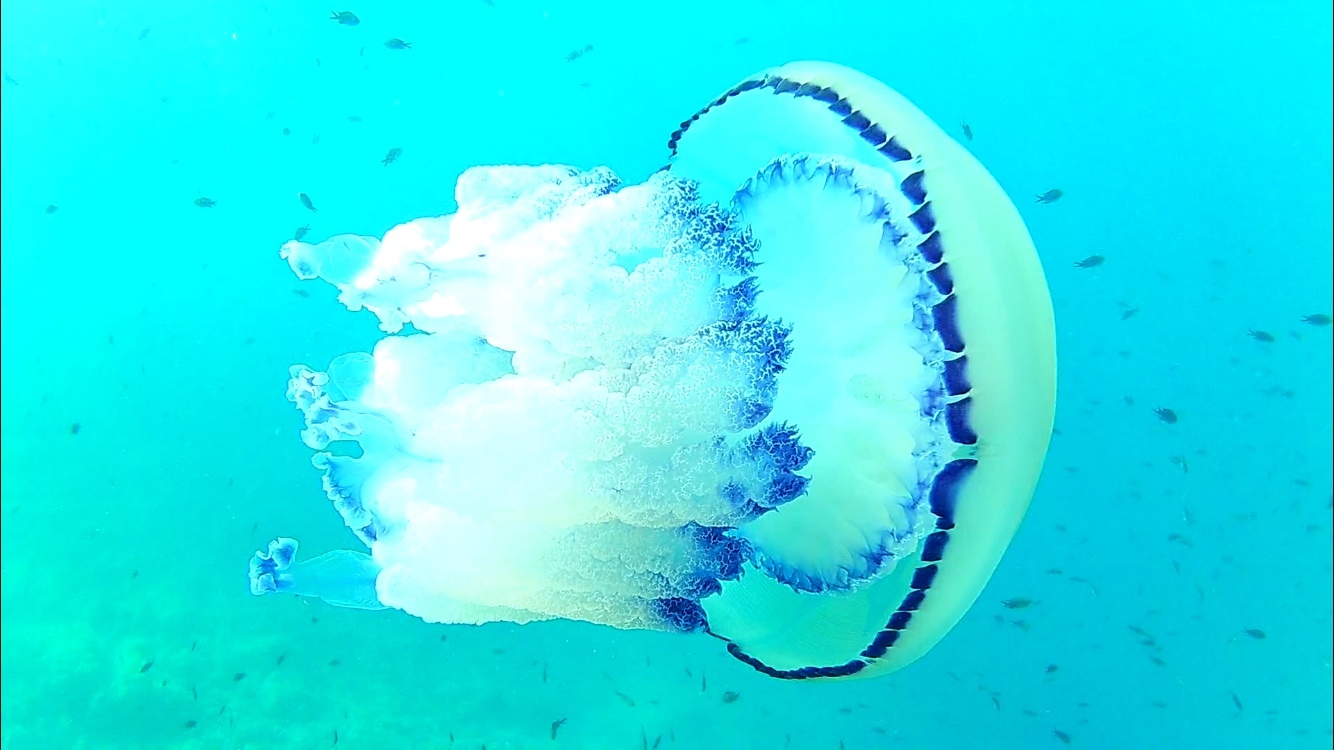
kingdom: Animalia
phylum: Cnidaria
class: Scyphozoa
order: Rhizostomeae
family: Rhizostomatidae
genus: Rhizostoma
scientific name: Rhizostoma pulmo
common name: Barrel jellyfish
